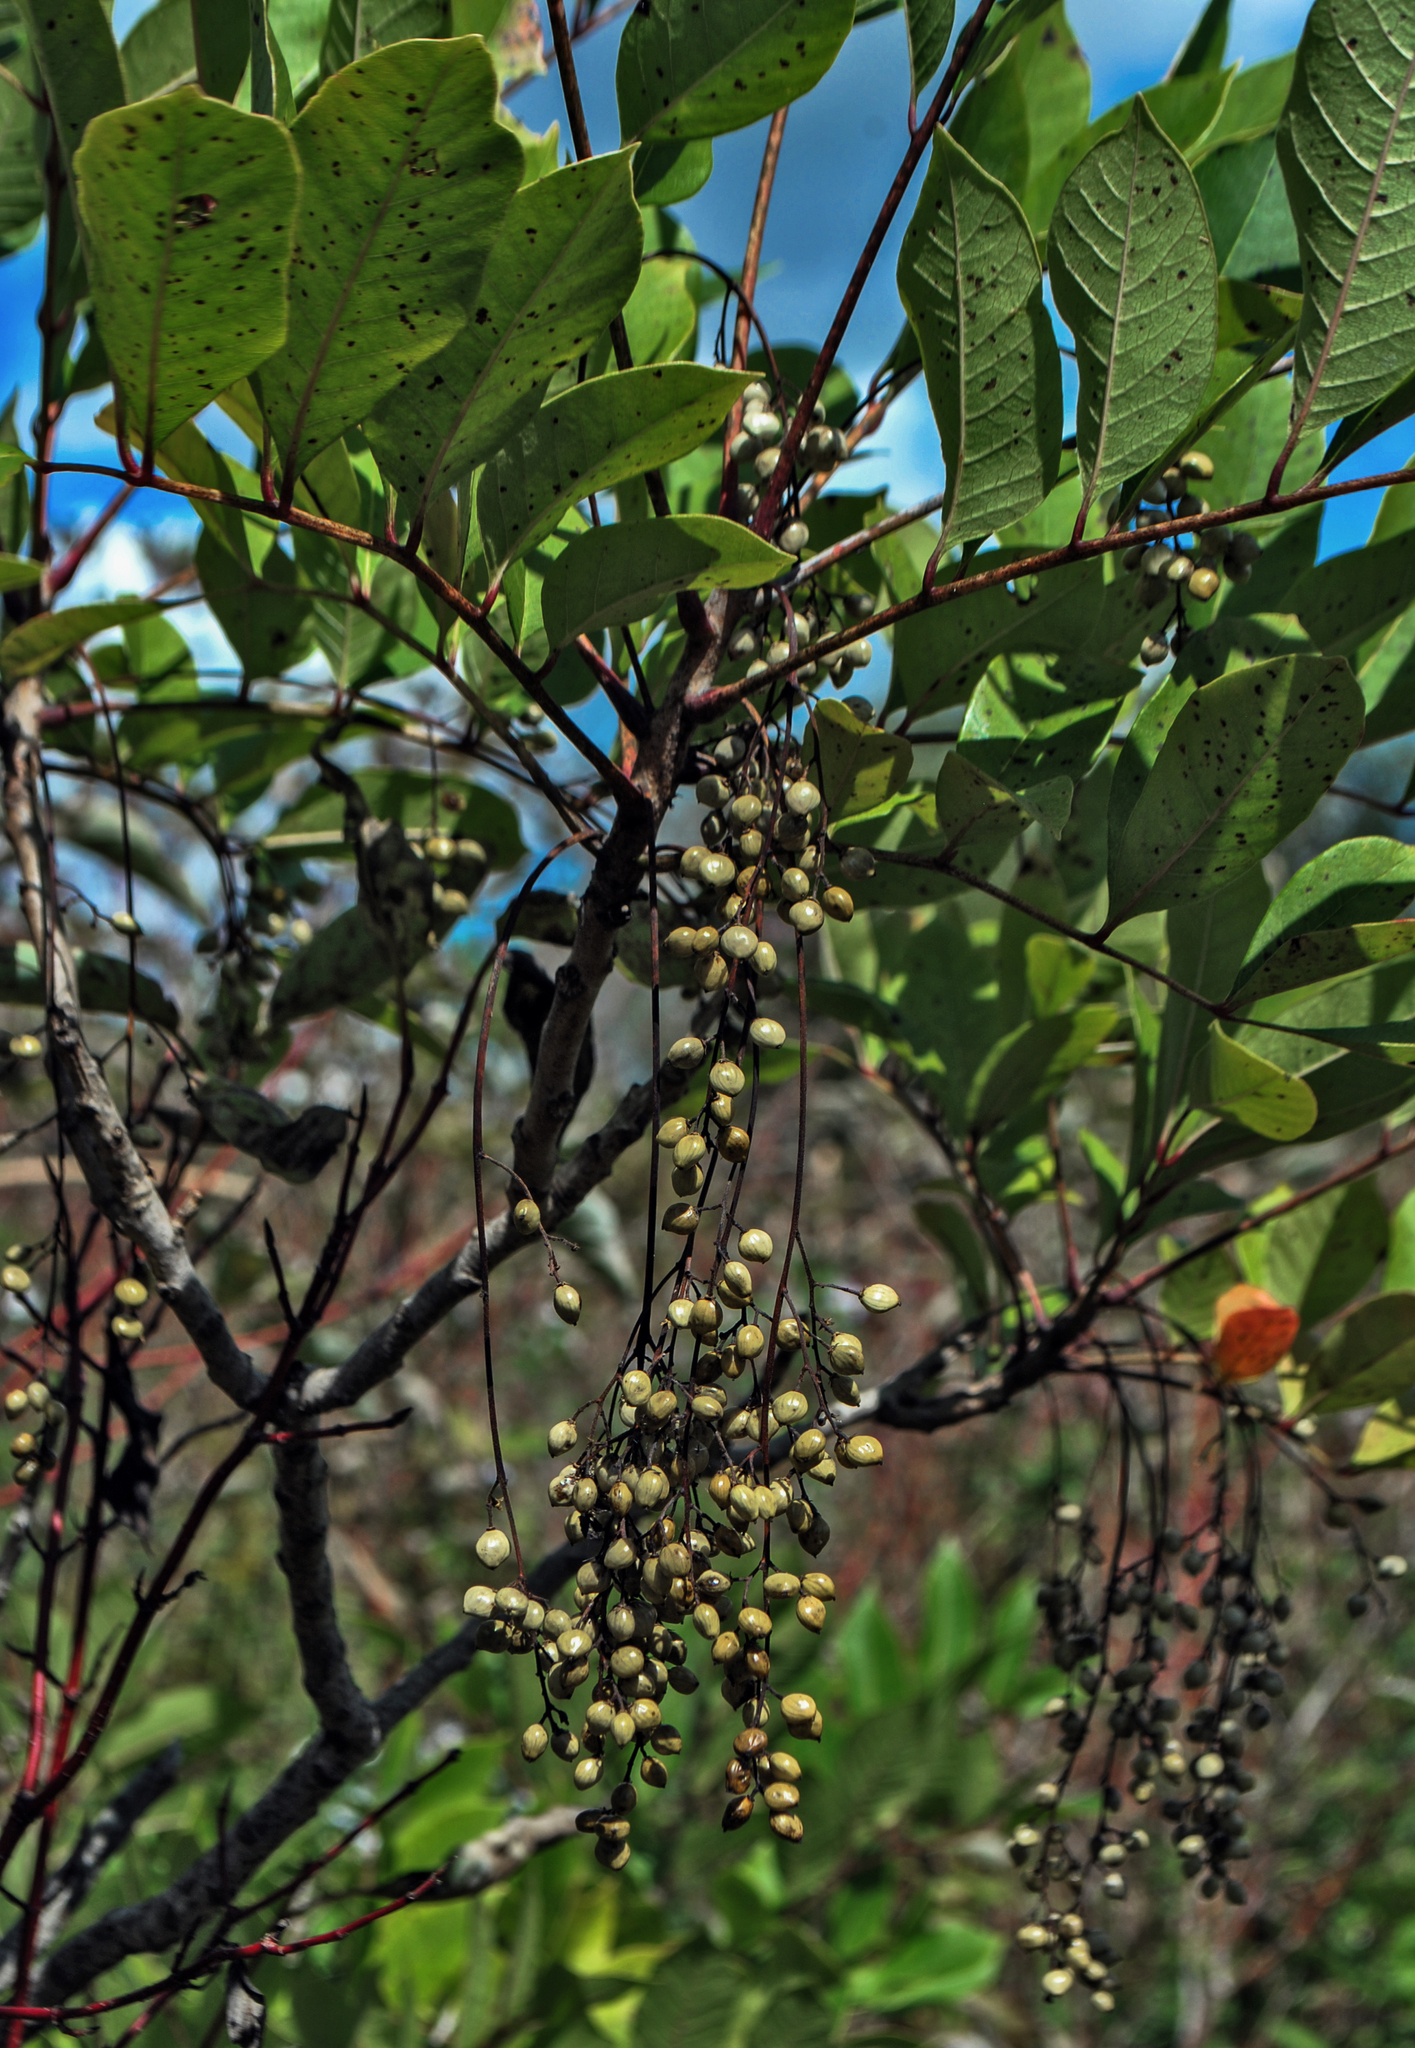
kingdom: Plantae
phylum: Tracheophyta
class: Magnoliopsida
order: Sapindales
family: Anacardiaceae
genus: Toxicodendron
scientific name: Toxicodendron vernix
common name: Poison sumac
